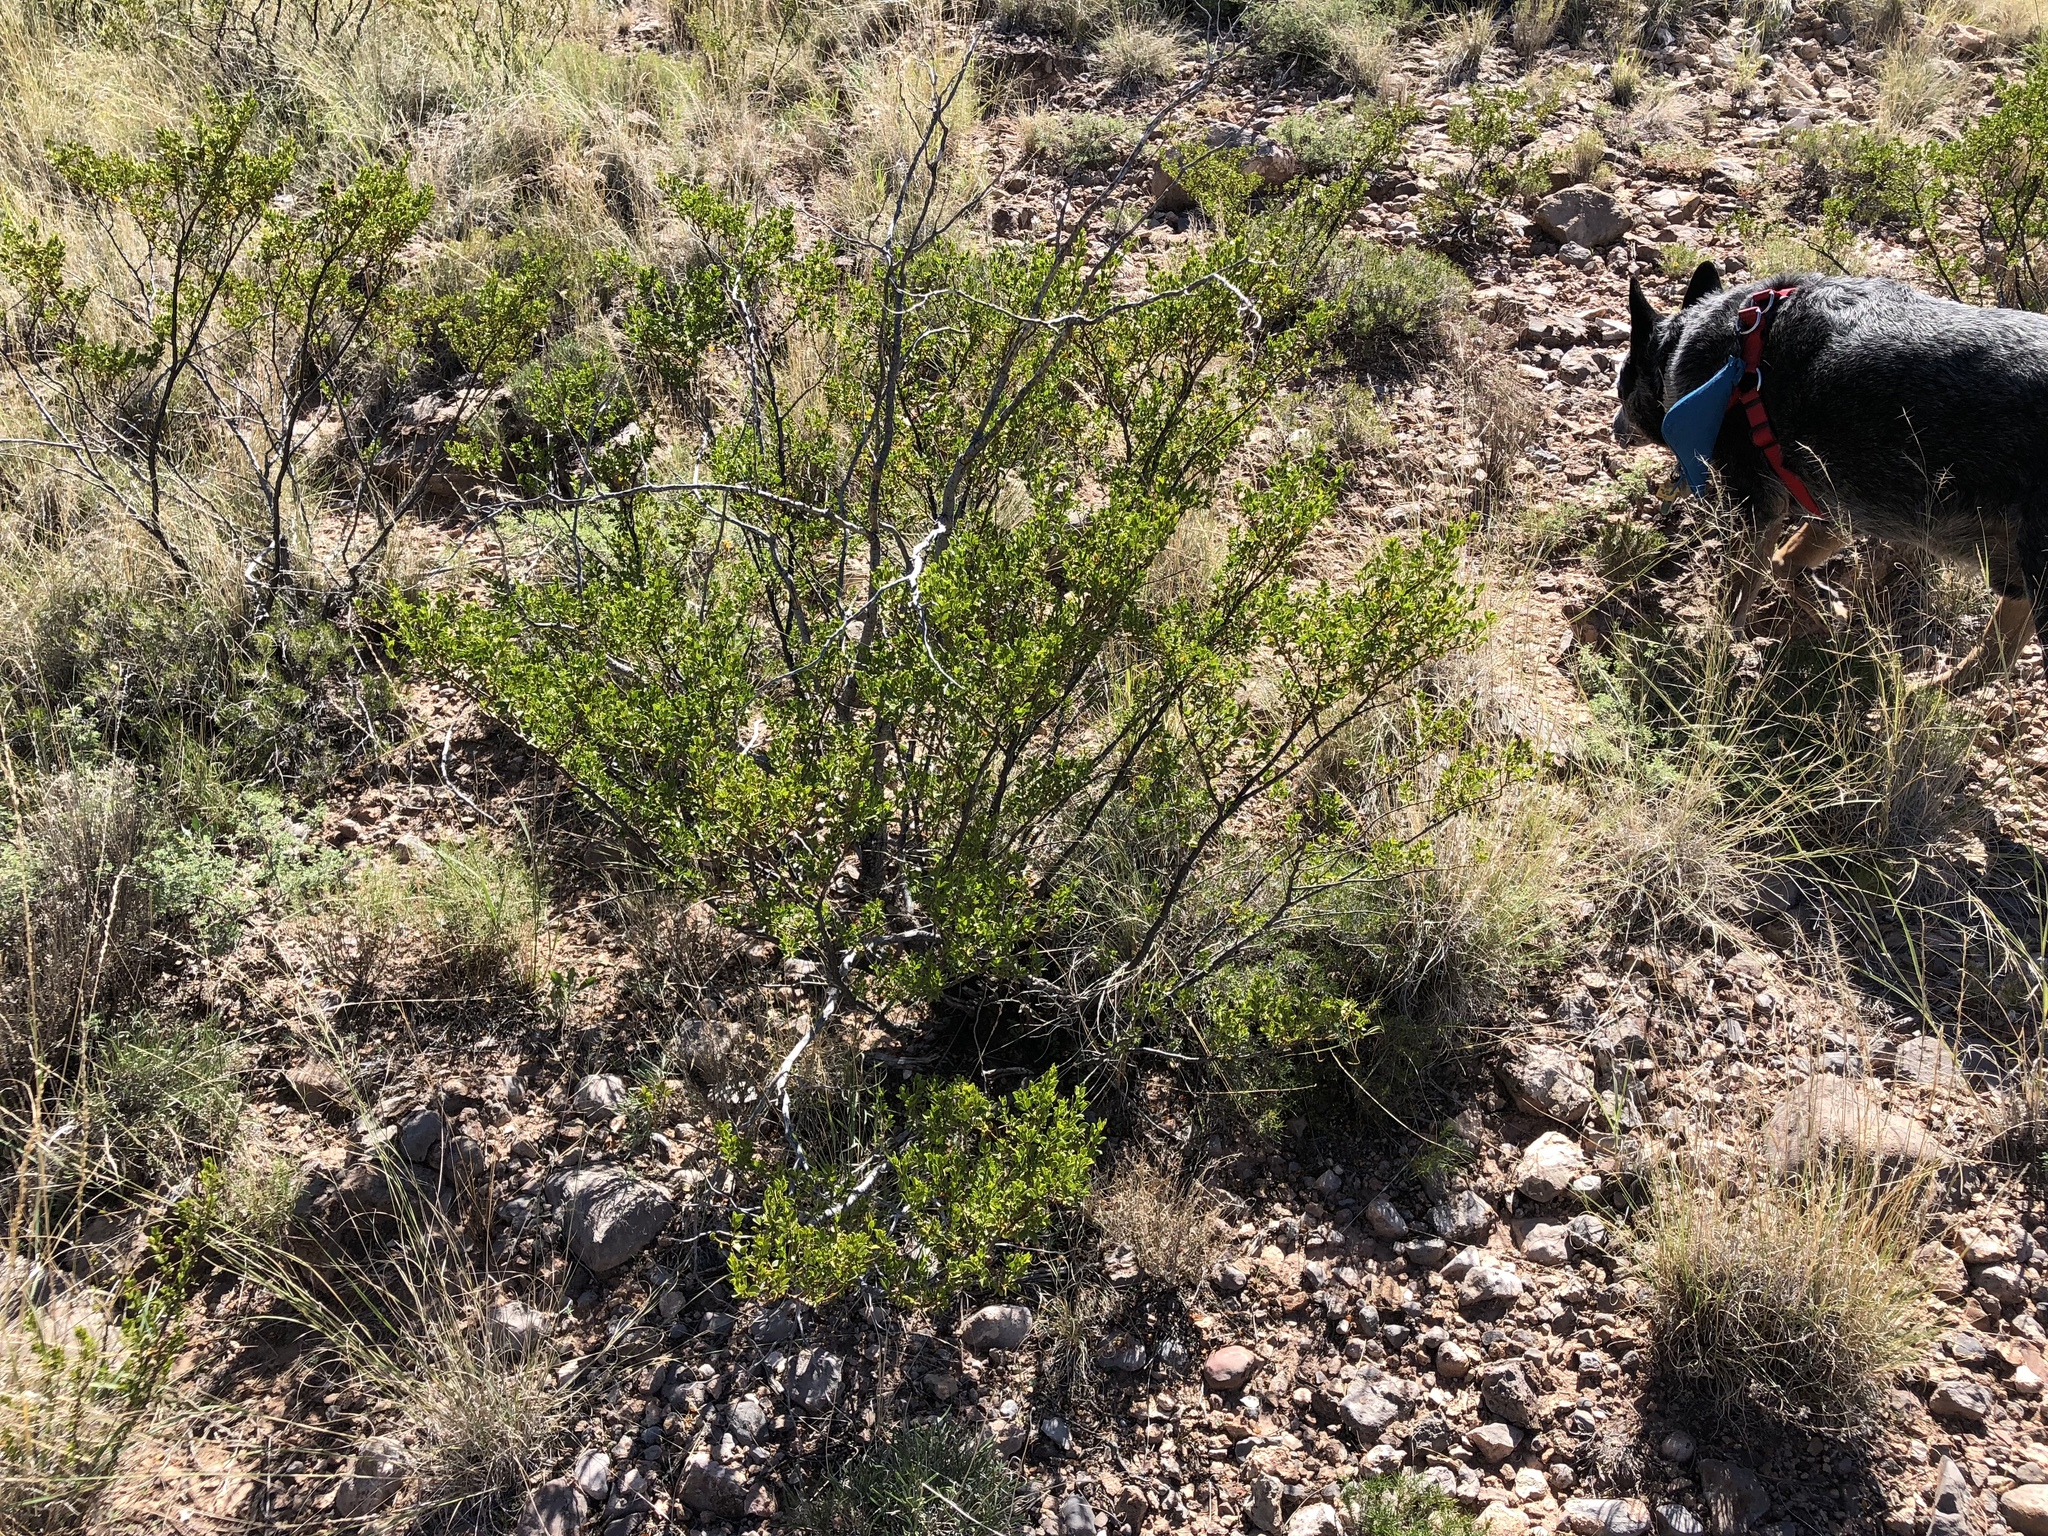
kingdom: Plantae
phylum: Tracheophyta
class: Magnoliopsida
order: Zygophyllales
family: Zygophyllaceae
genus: Larrea
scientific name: Larrea tridentata
